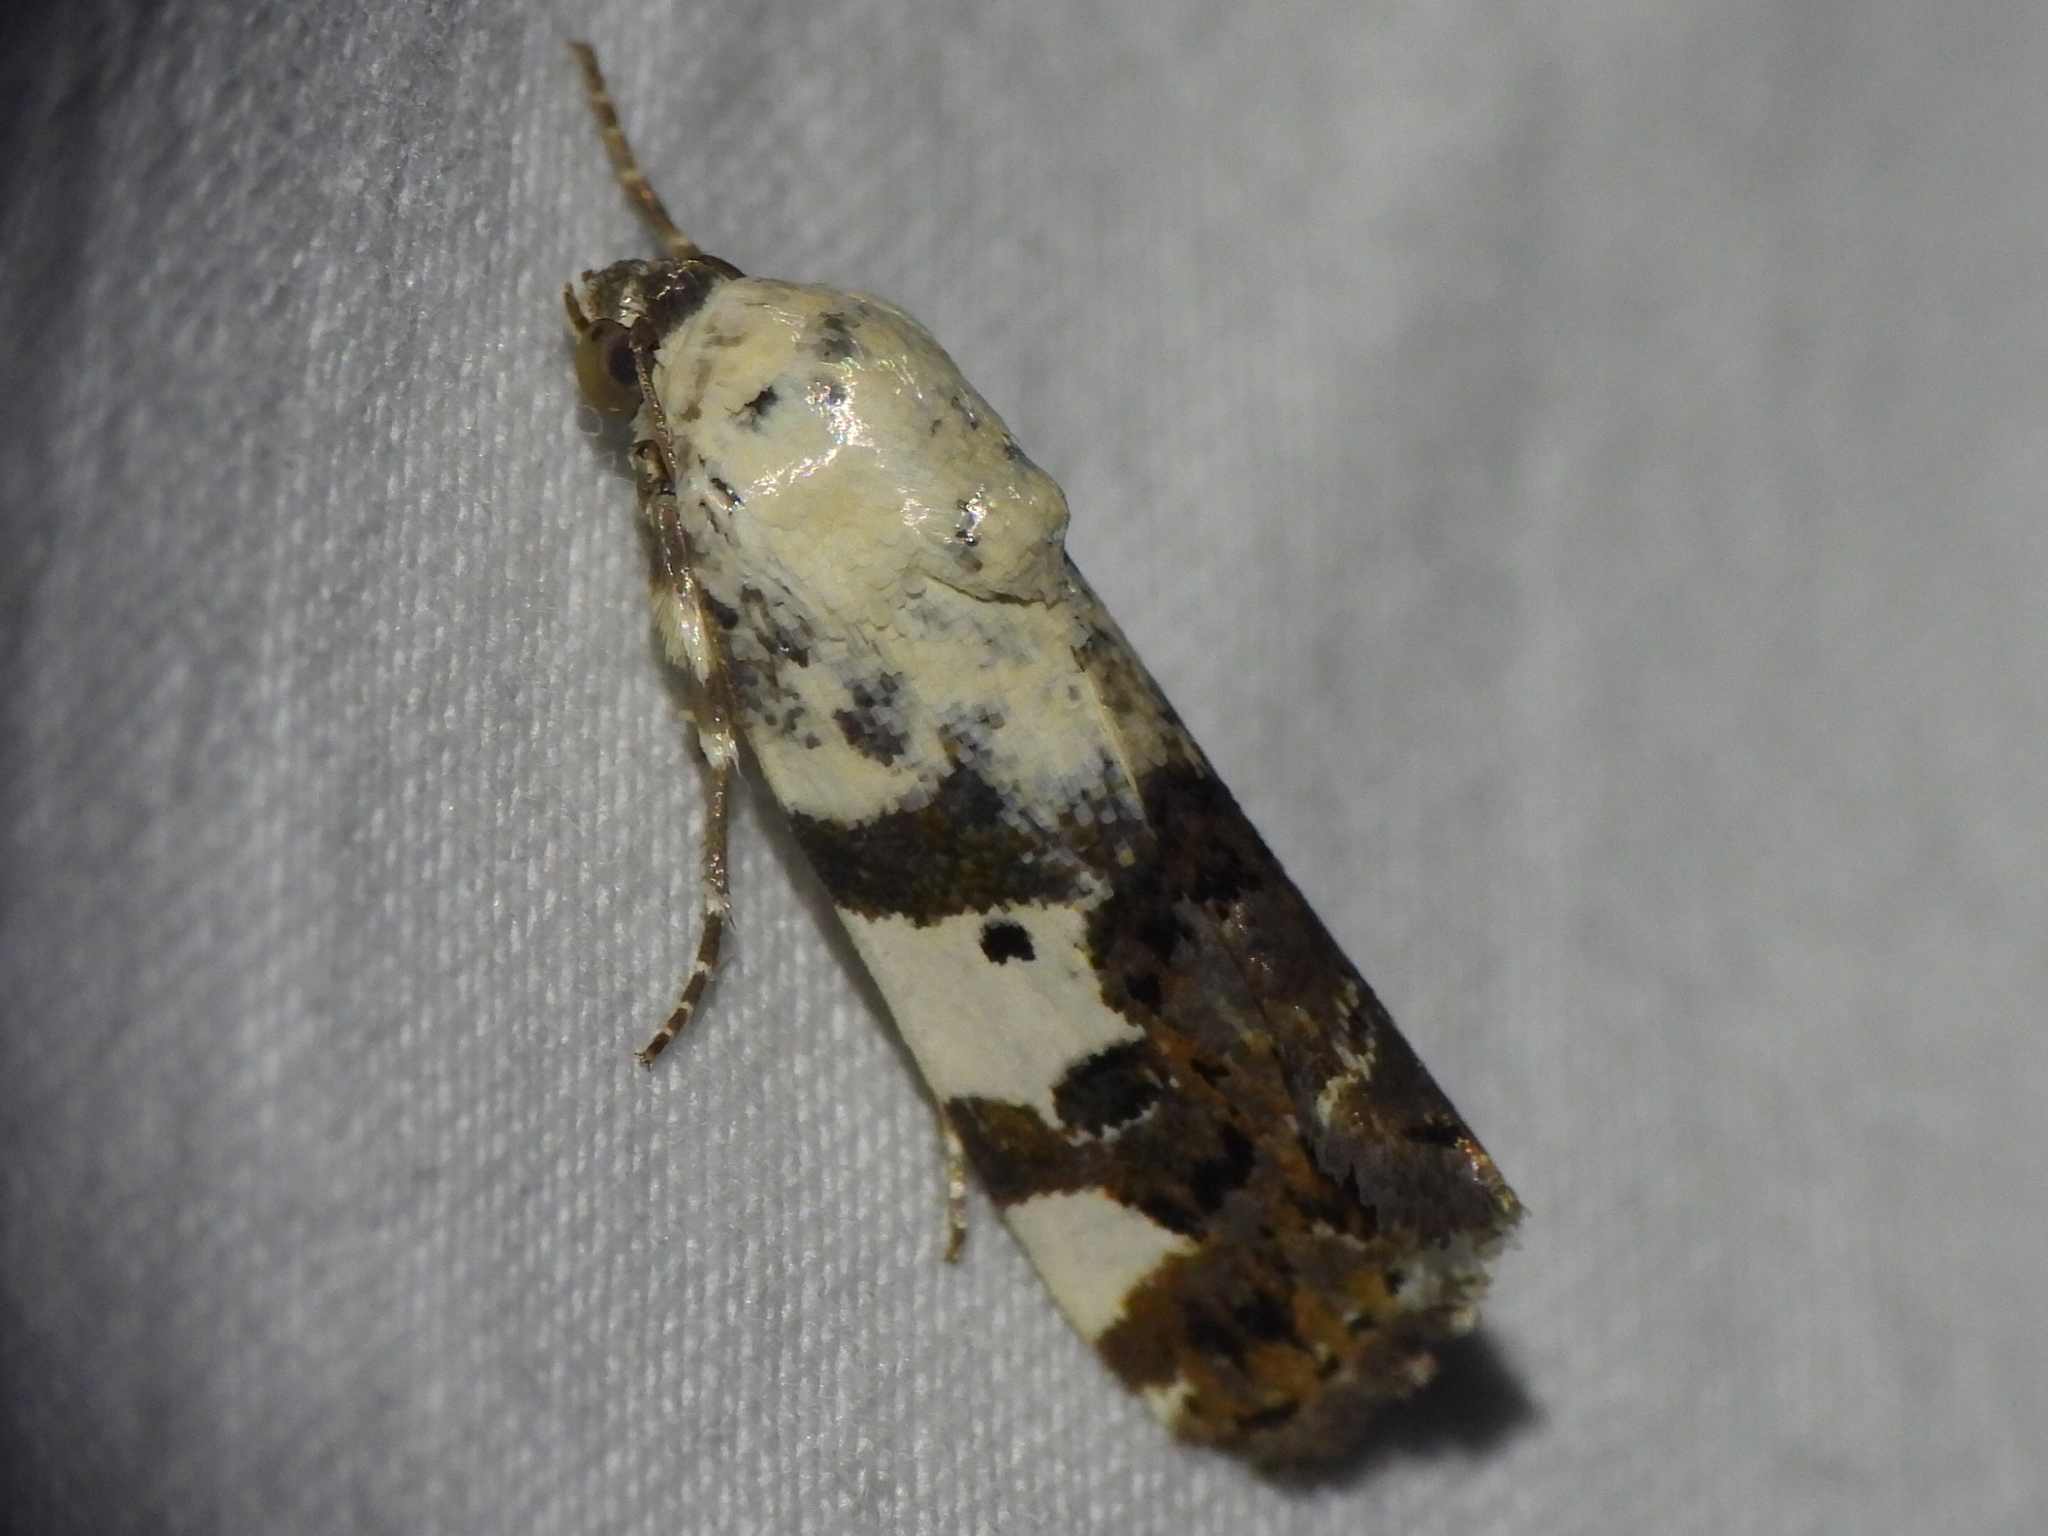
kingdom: Animalia
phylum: Arthropoda
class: Insecta
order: Lepidoptera
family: Noctuidae
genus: Acontia
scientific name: Acontia aprica
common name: Nun
